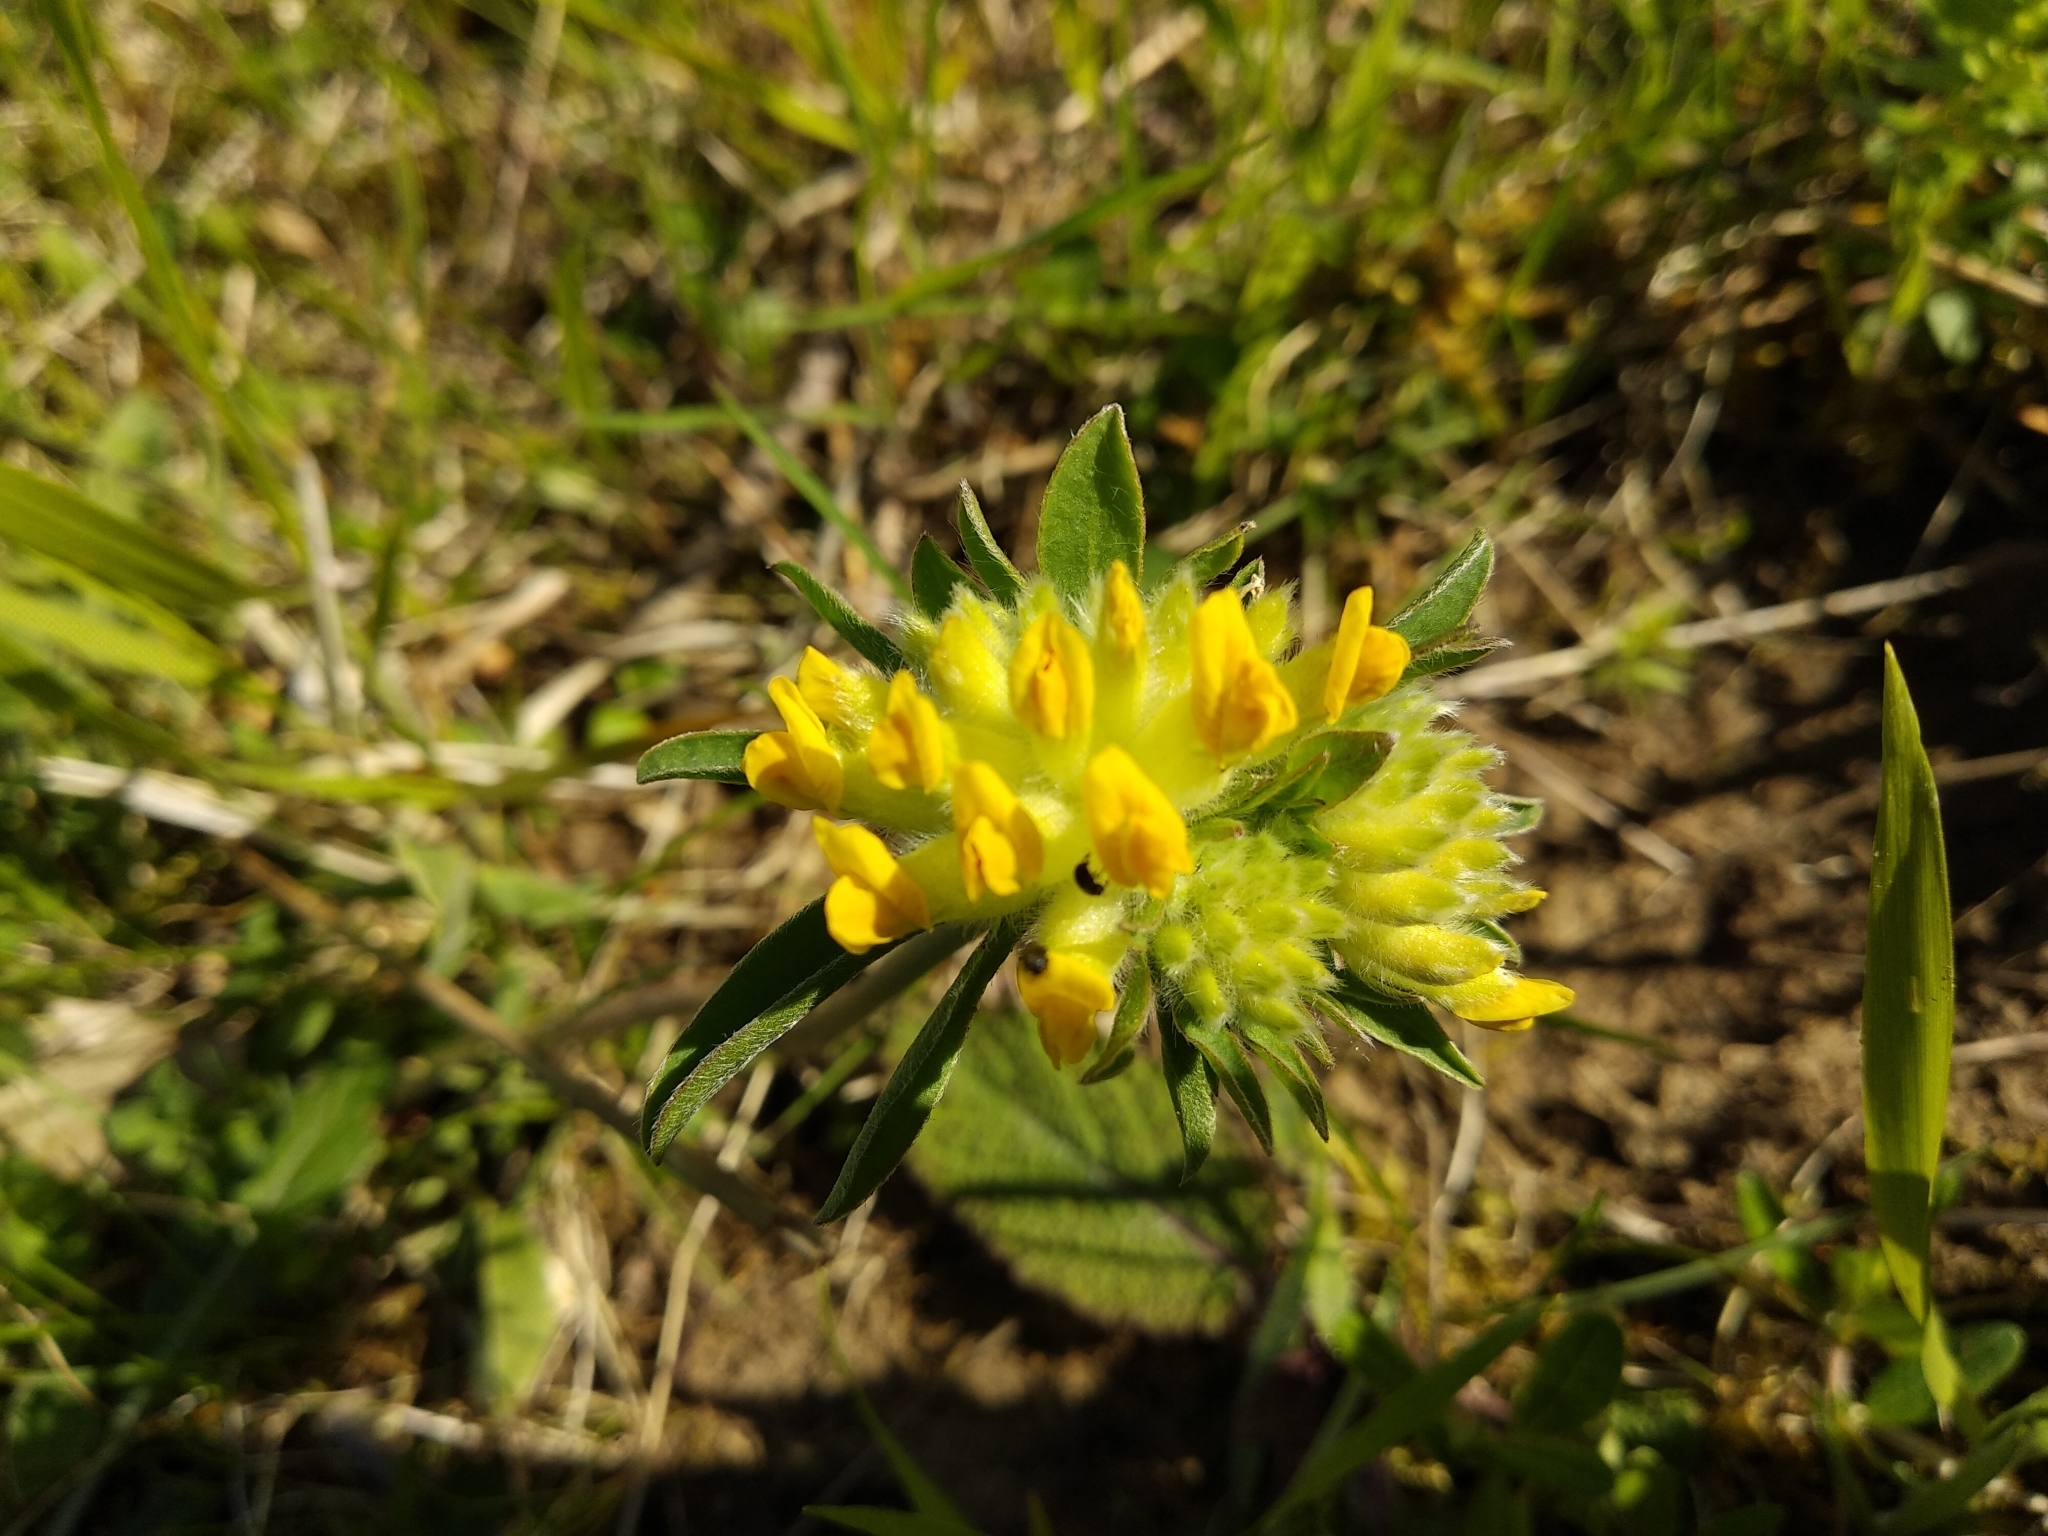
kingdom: Plantae
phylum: Tracheophyta
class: Magnoliopsida
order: Fabales
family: Fabaceae
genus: Anthyllis
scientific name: Anthyllis vulneraria
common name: Kidney vetch
